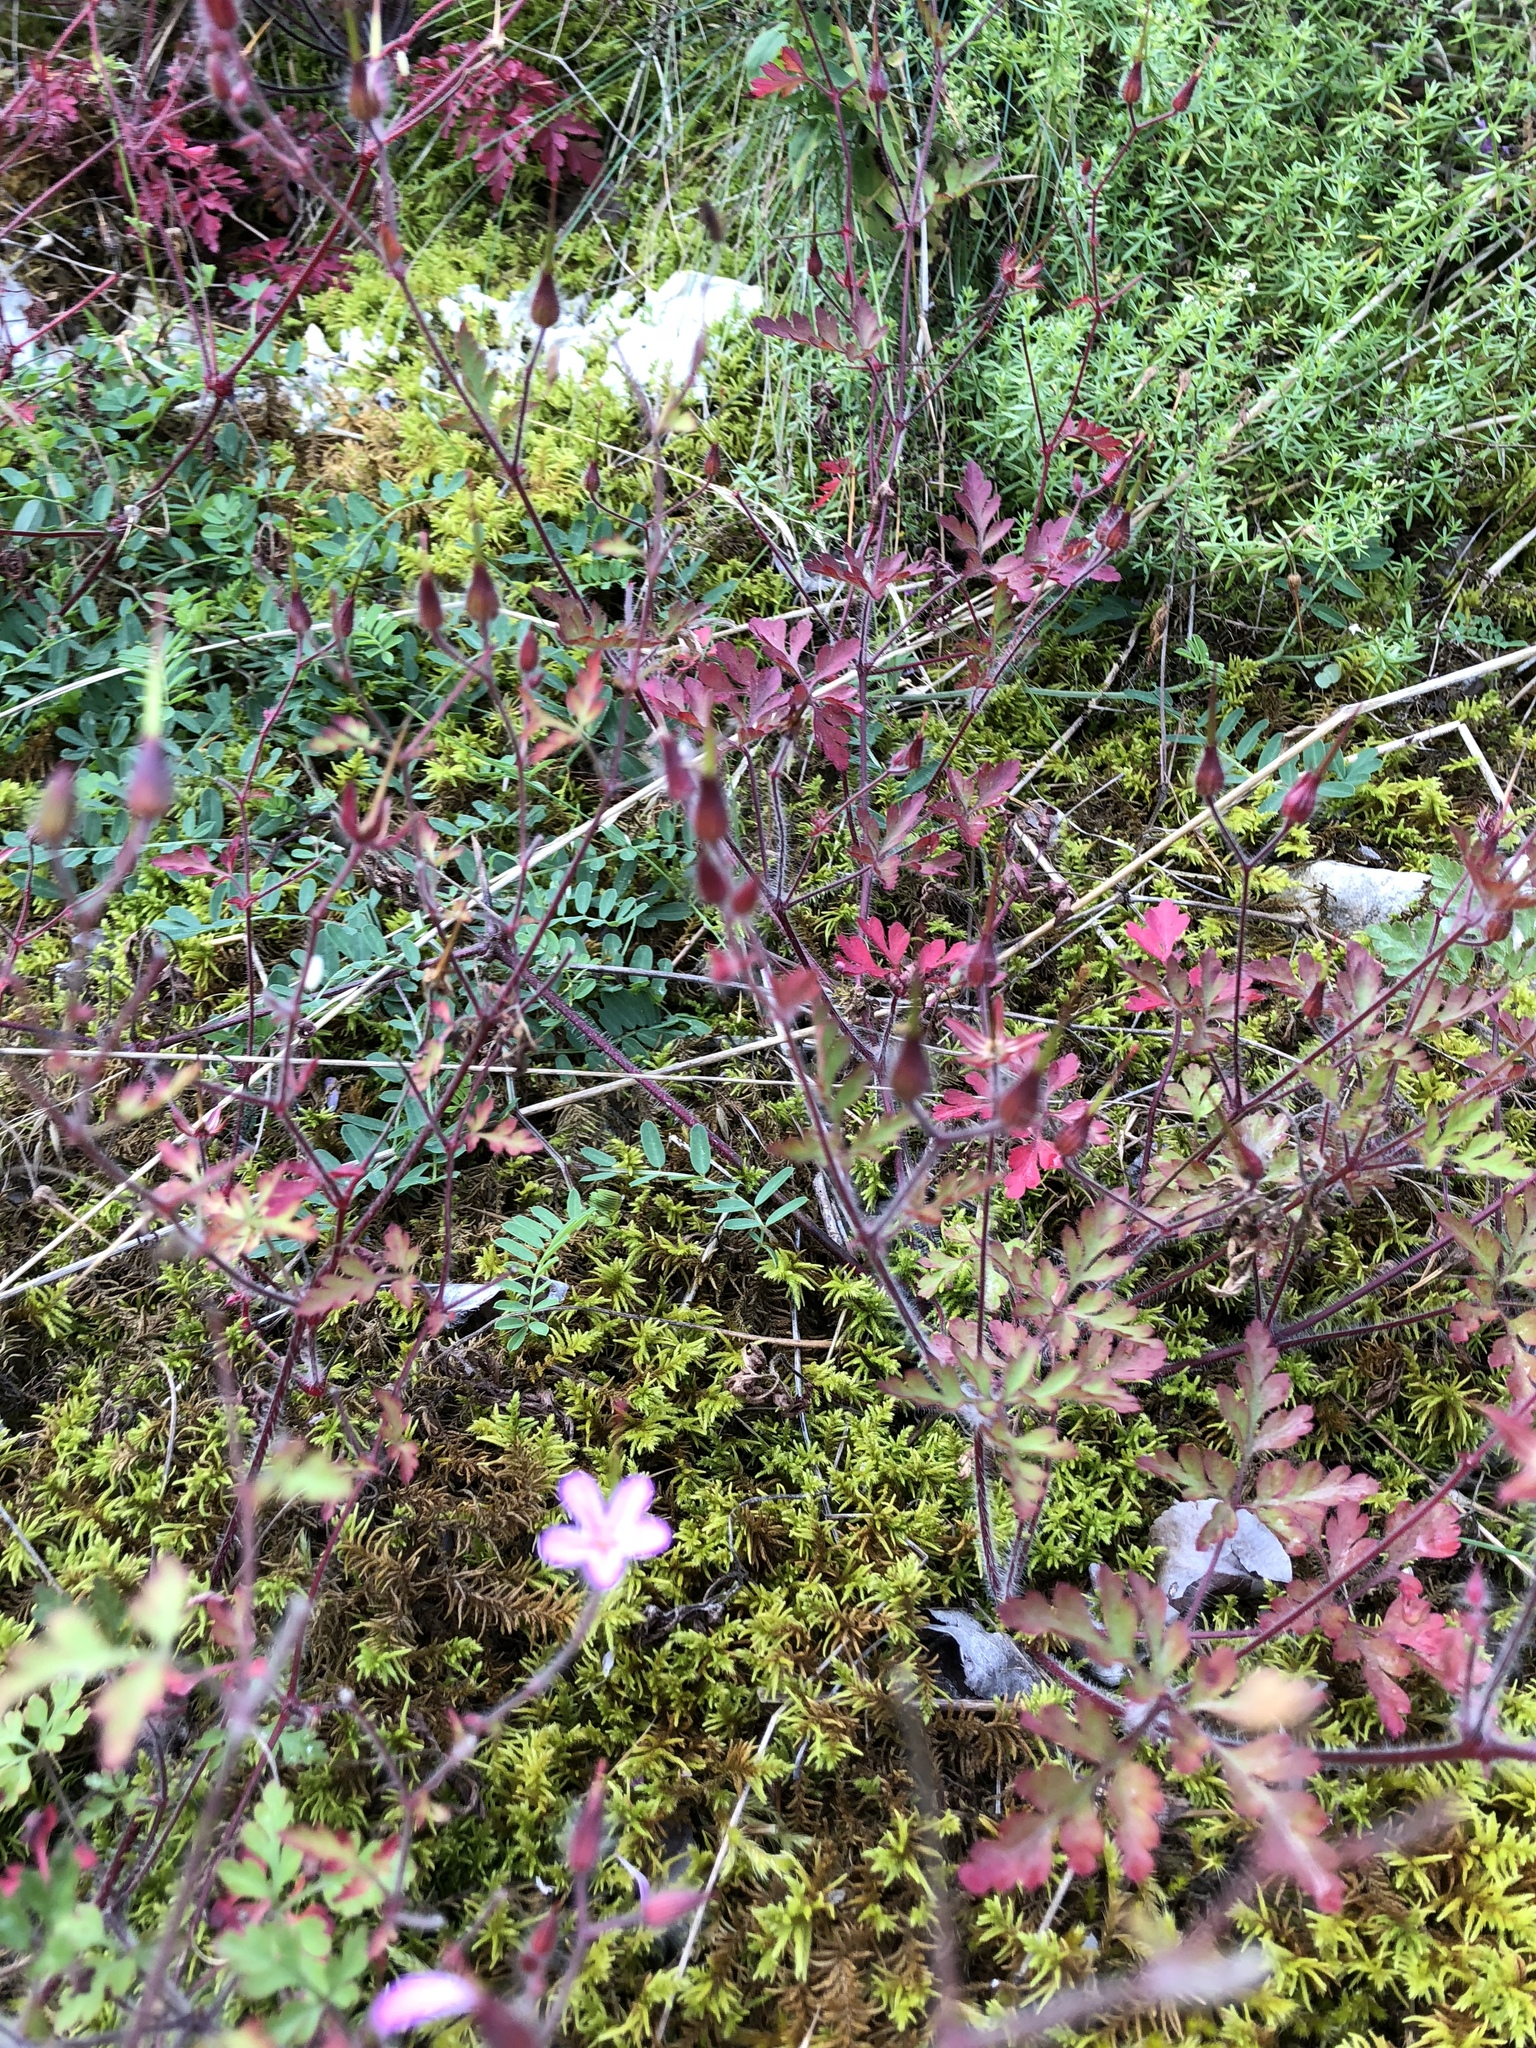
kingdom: Plantae
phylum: Tracheophyta
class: Magnoliopsida
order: Geraniales
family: Geraniaceae
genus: Geranium
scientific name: Geranium robertianum
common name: Herb-robert
